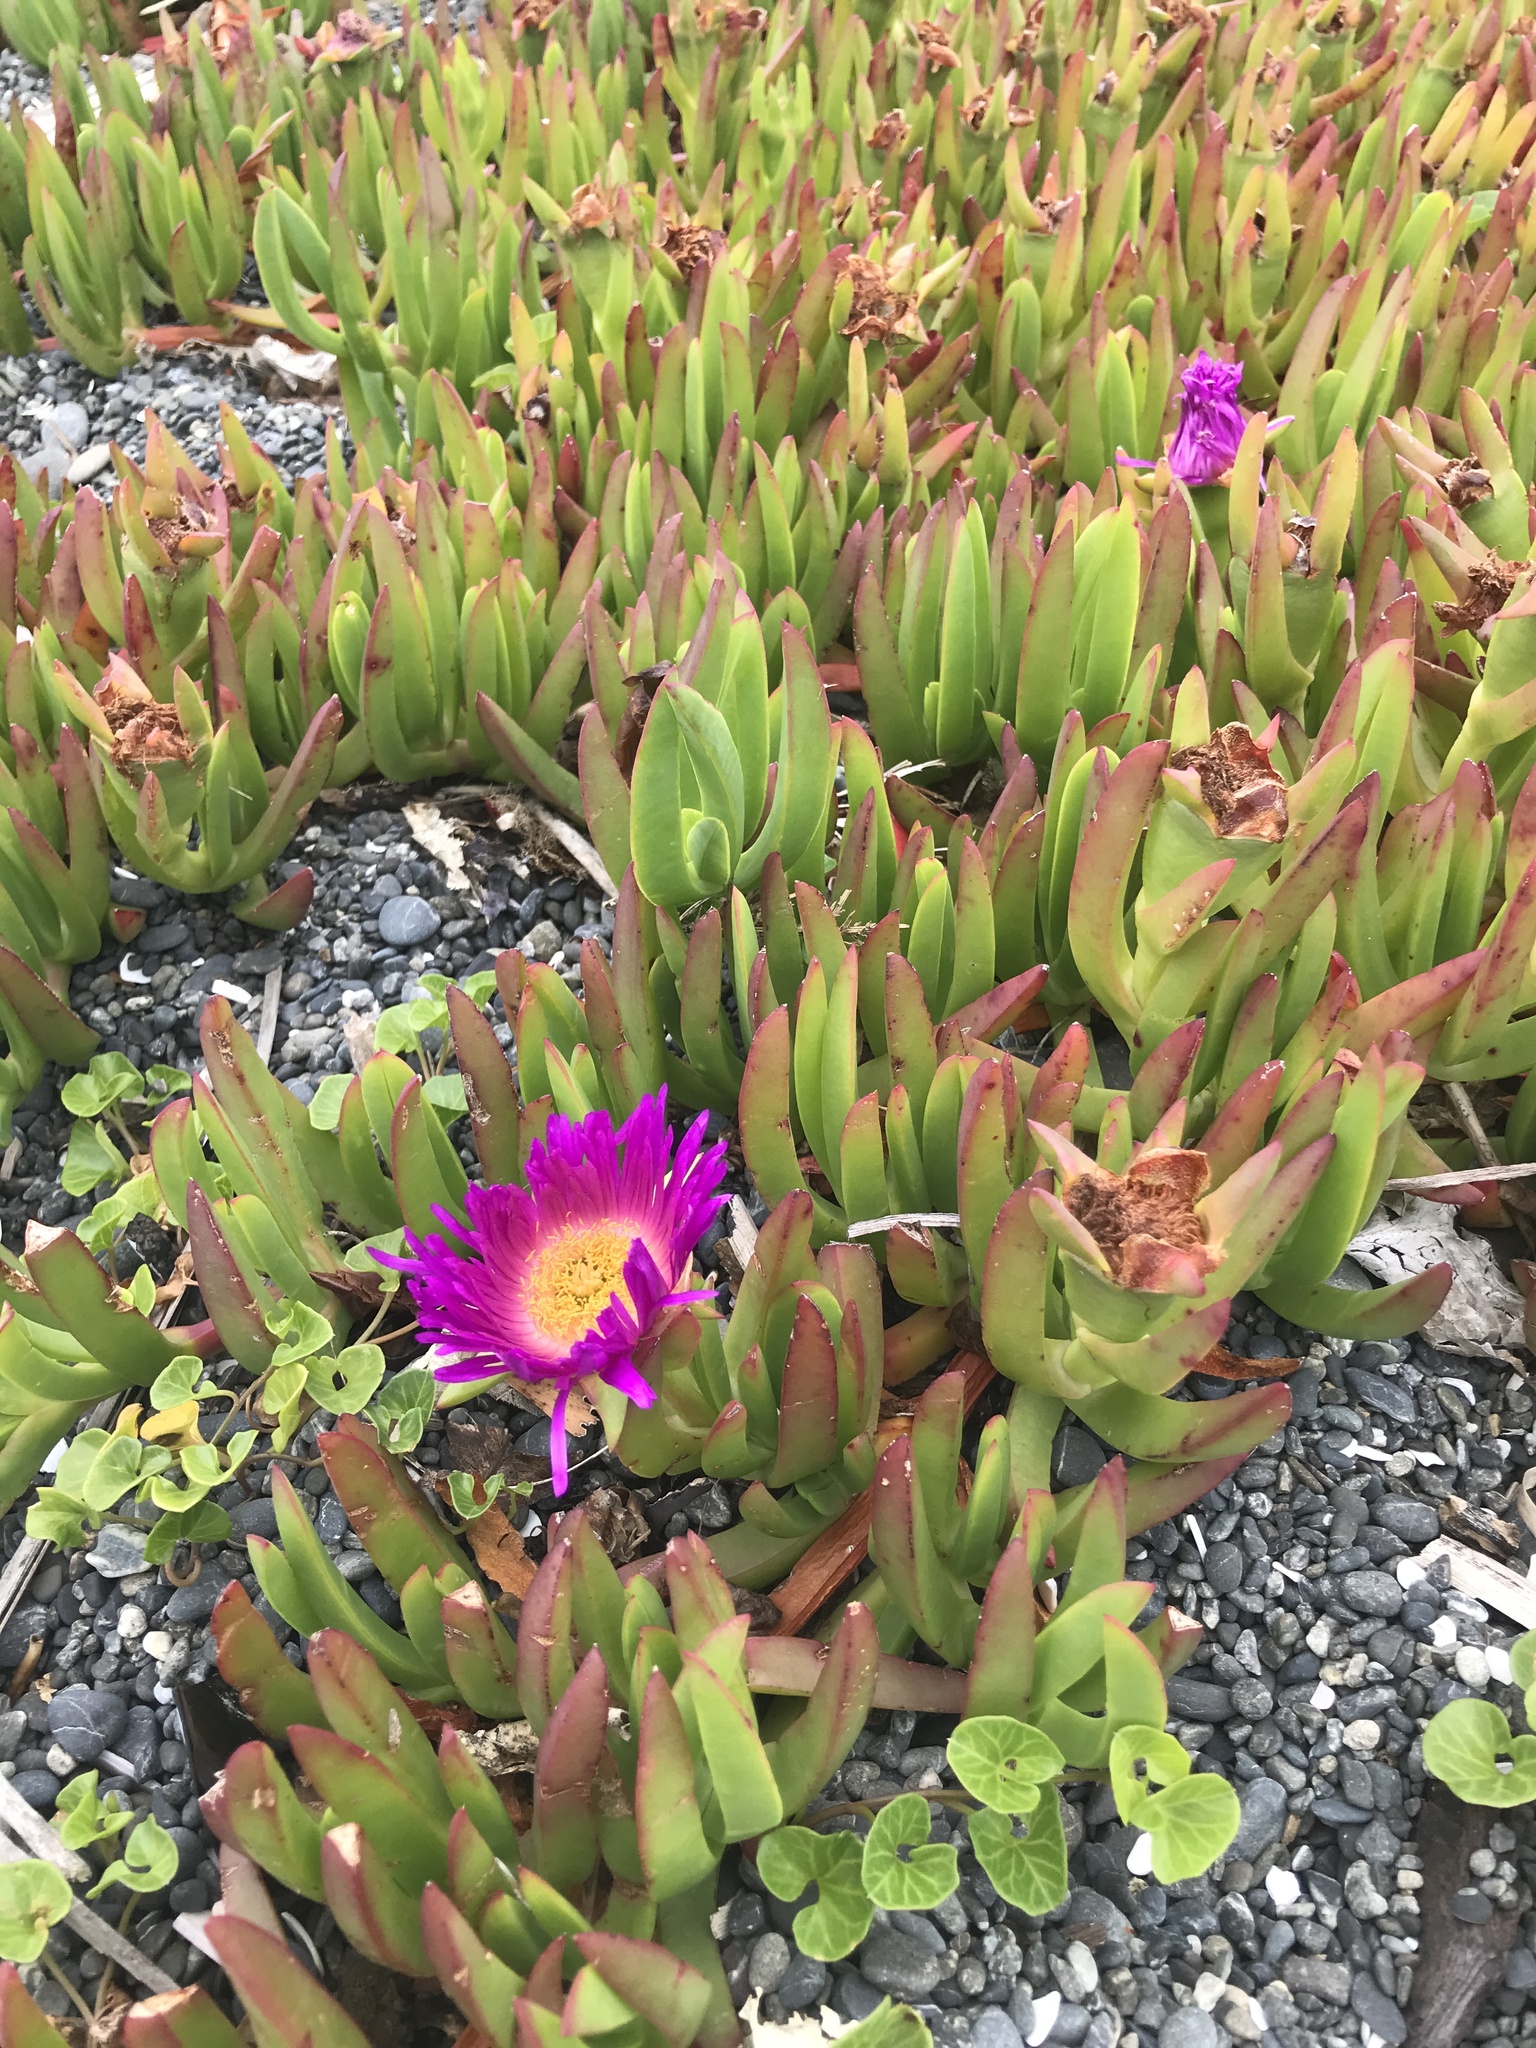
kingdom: Plantae
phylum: Tracheophyta
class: Magnoliopsida
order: Caryophyllales
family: Aizoaceae
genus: Carpobrotus
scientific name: Carpobrotus chilensis
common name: Sea fig
